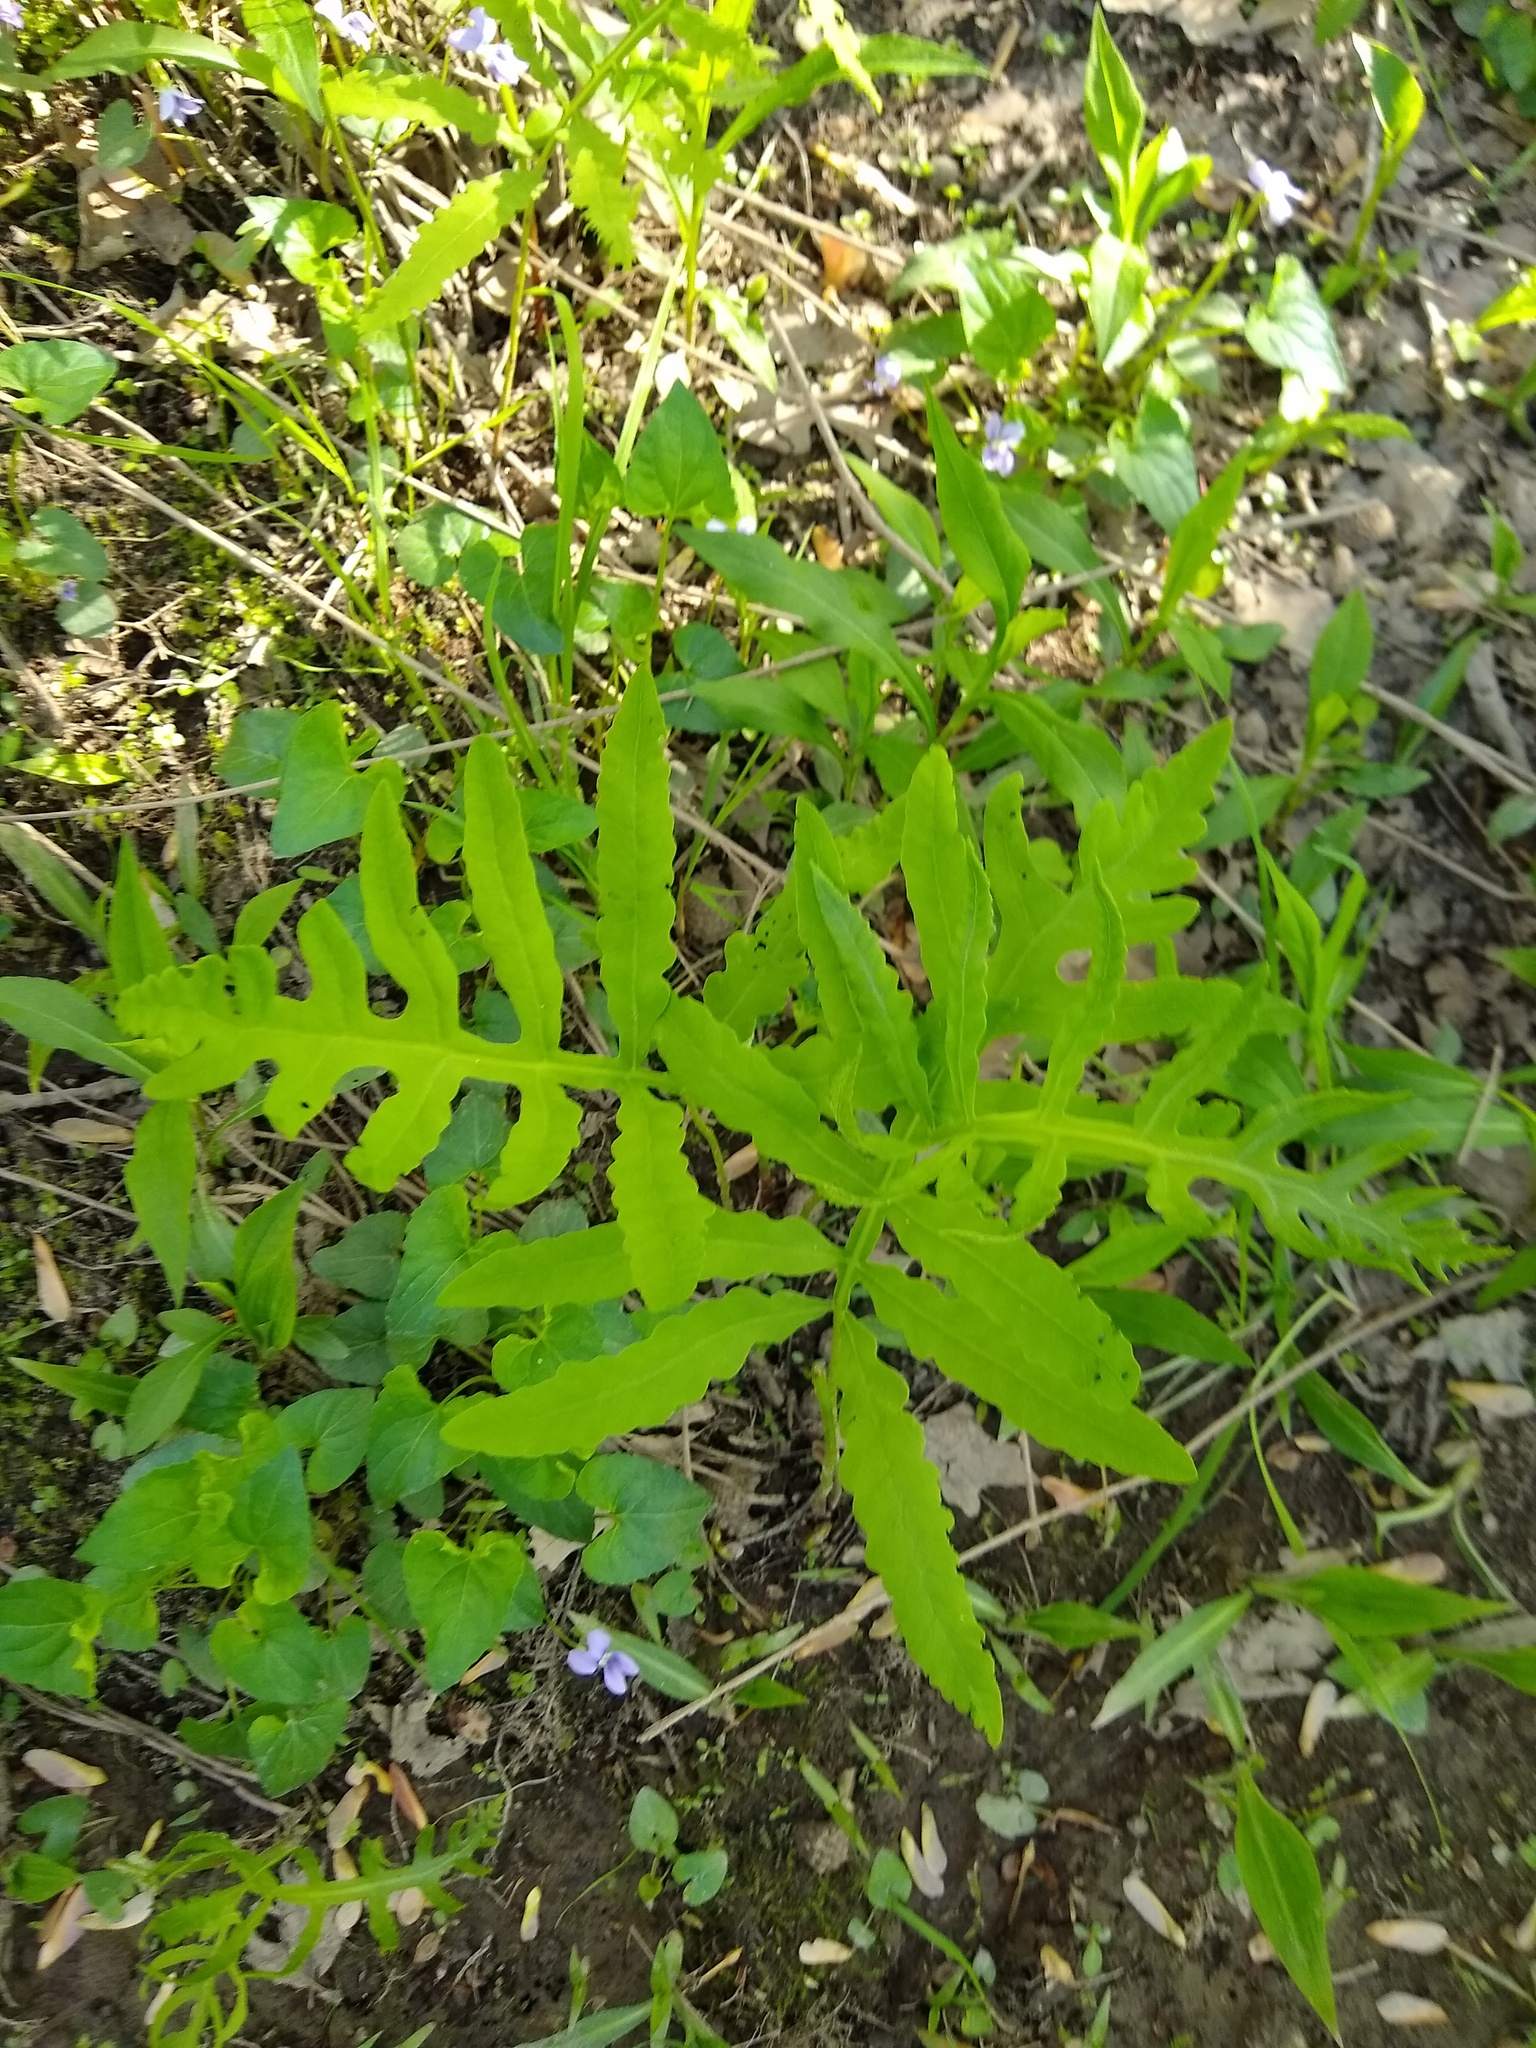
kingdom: Plantae
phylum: Tracheophyta
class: Polypodiopsida
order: Polypodiales
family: Onocleaceae
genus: Onoclea
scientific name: Onoclea sensibilis
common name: Sensitive fern
